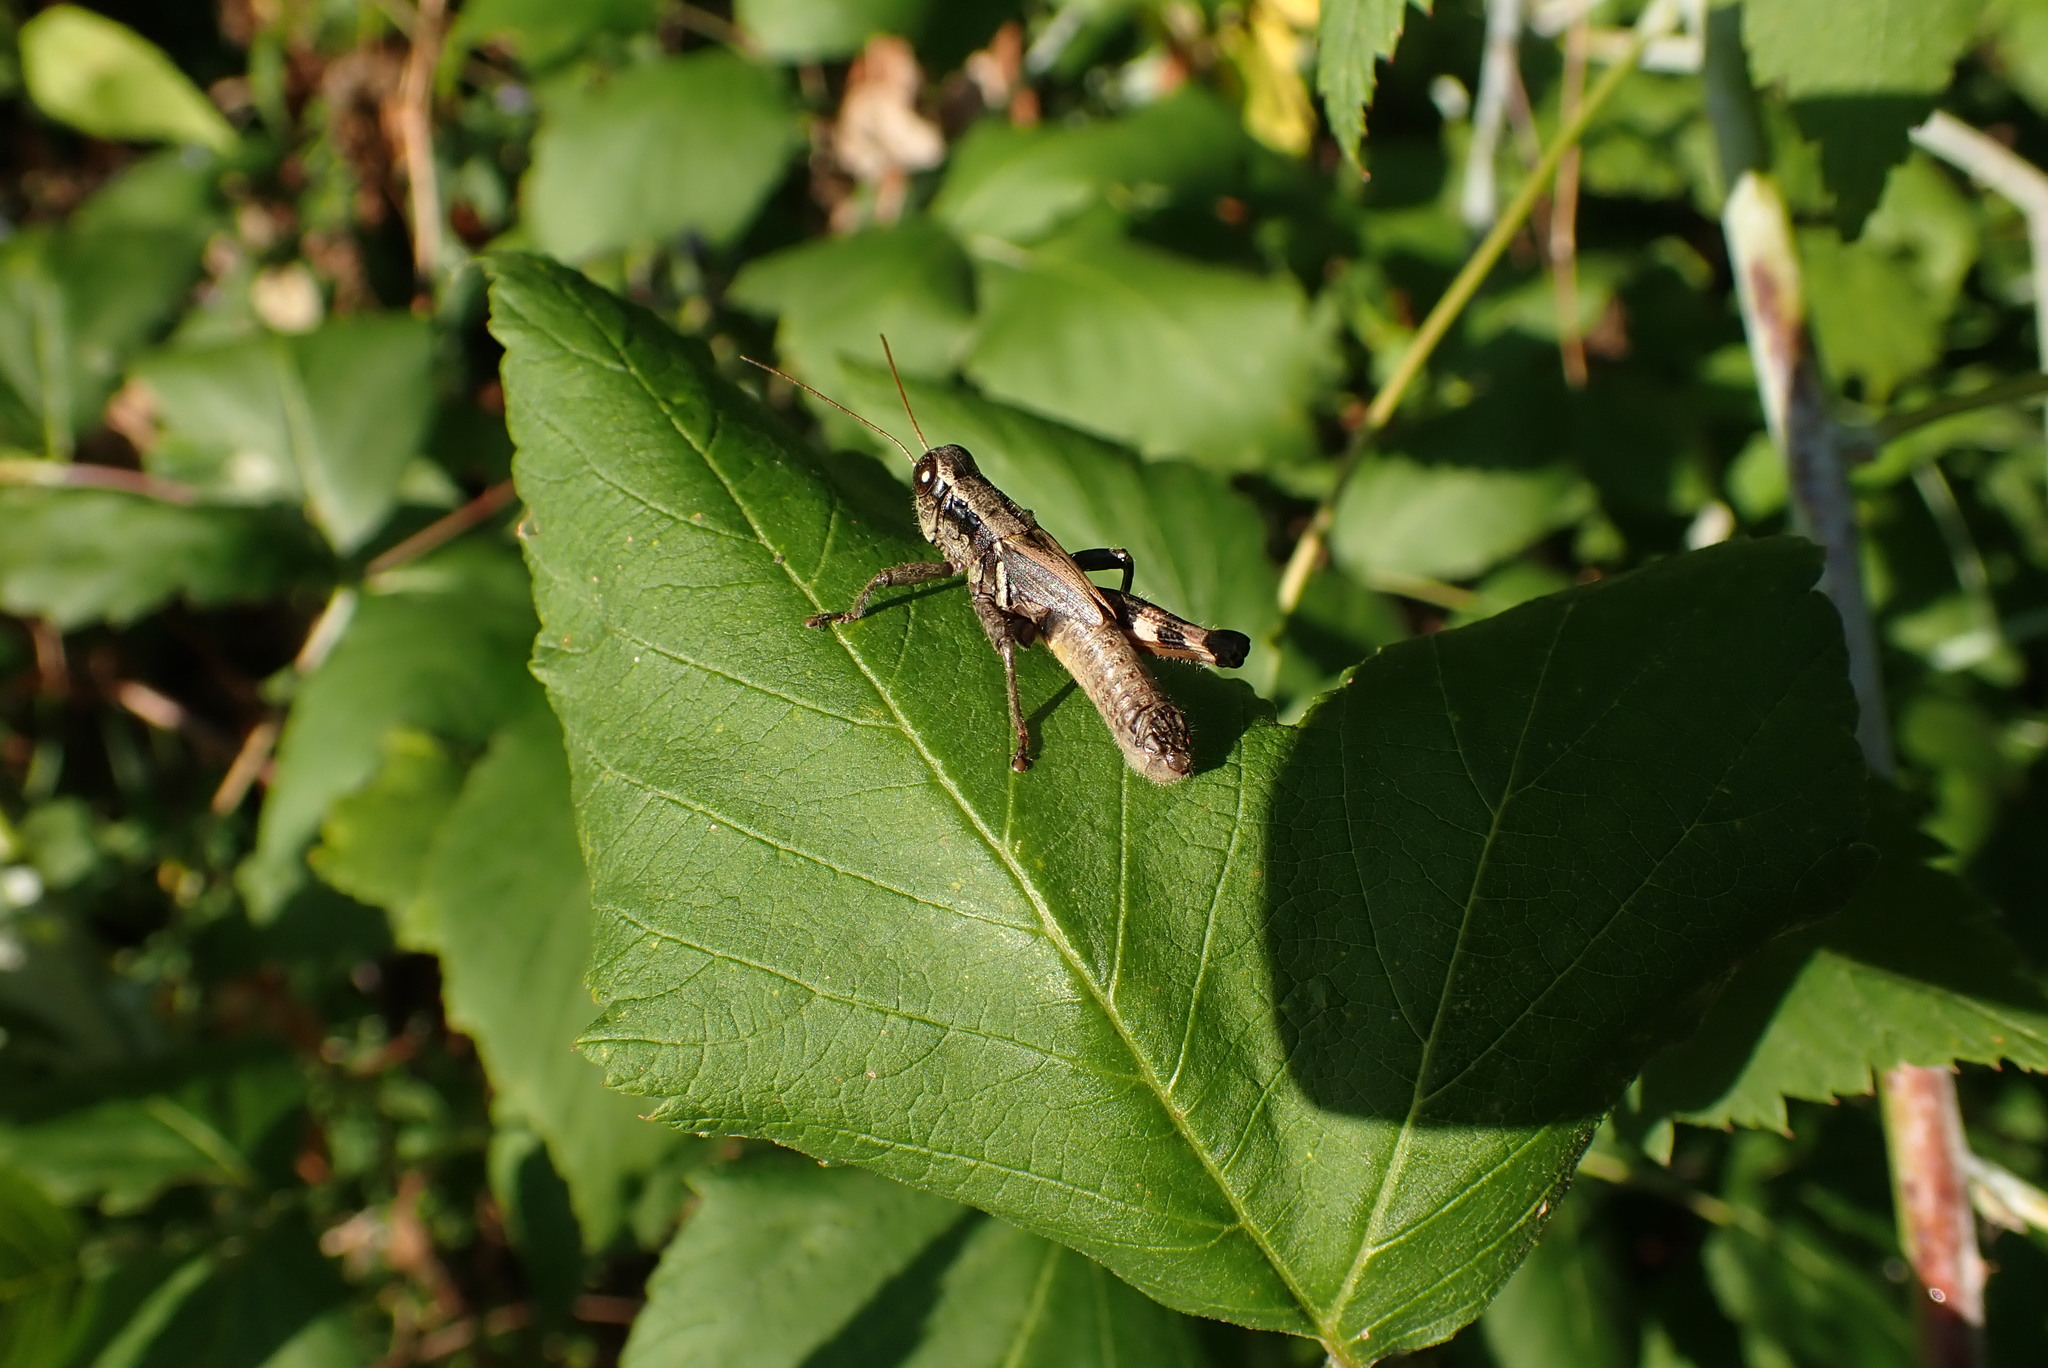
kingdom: Animalia
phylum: Arthropoda
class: Insecta
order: Orthoptera
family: Acrididae
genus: Melanoplus
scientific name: Melanoplus walshii
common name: Walsh's locust
